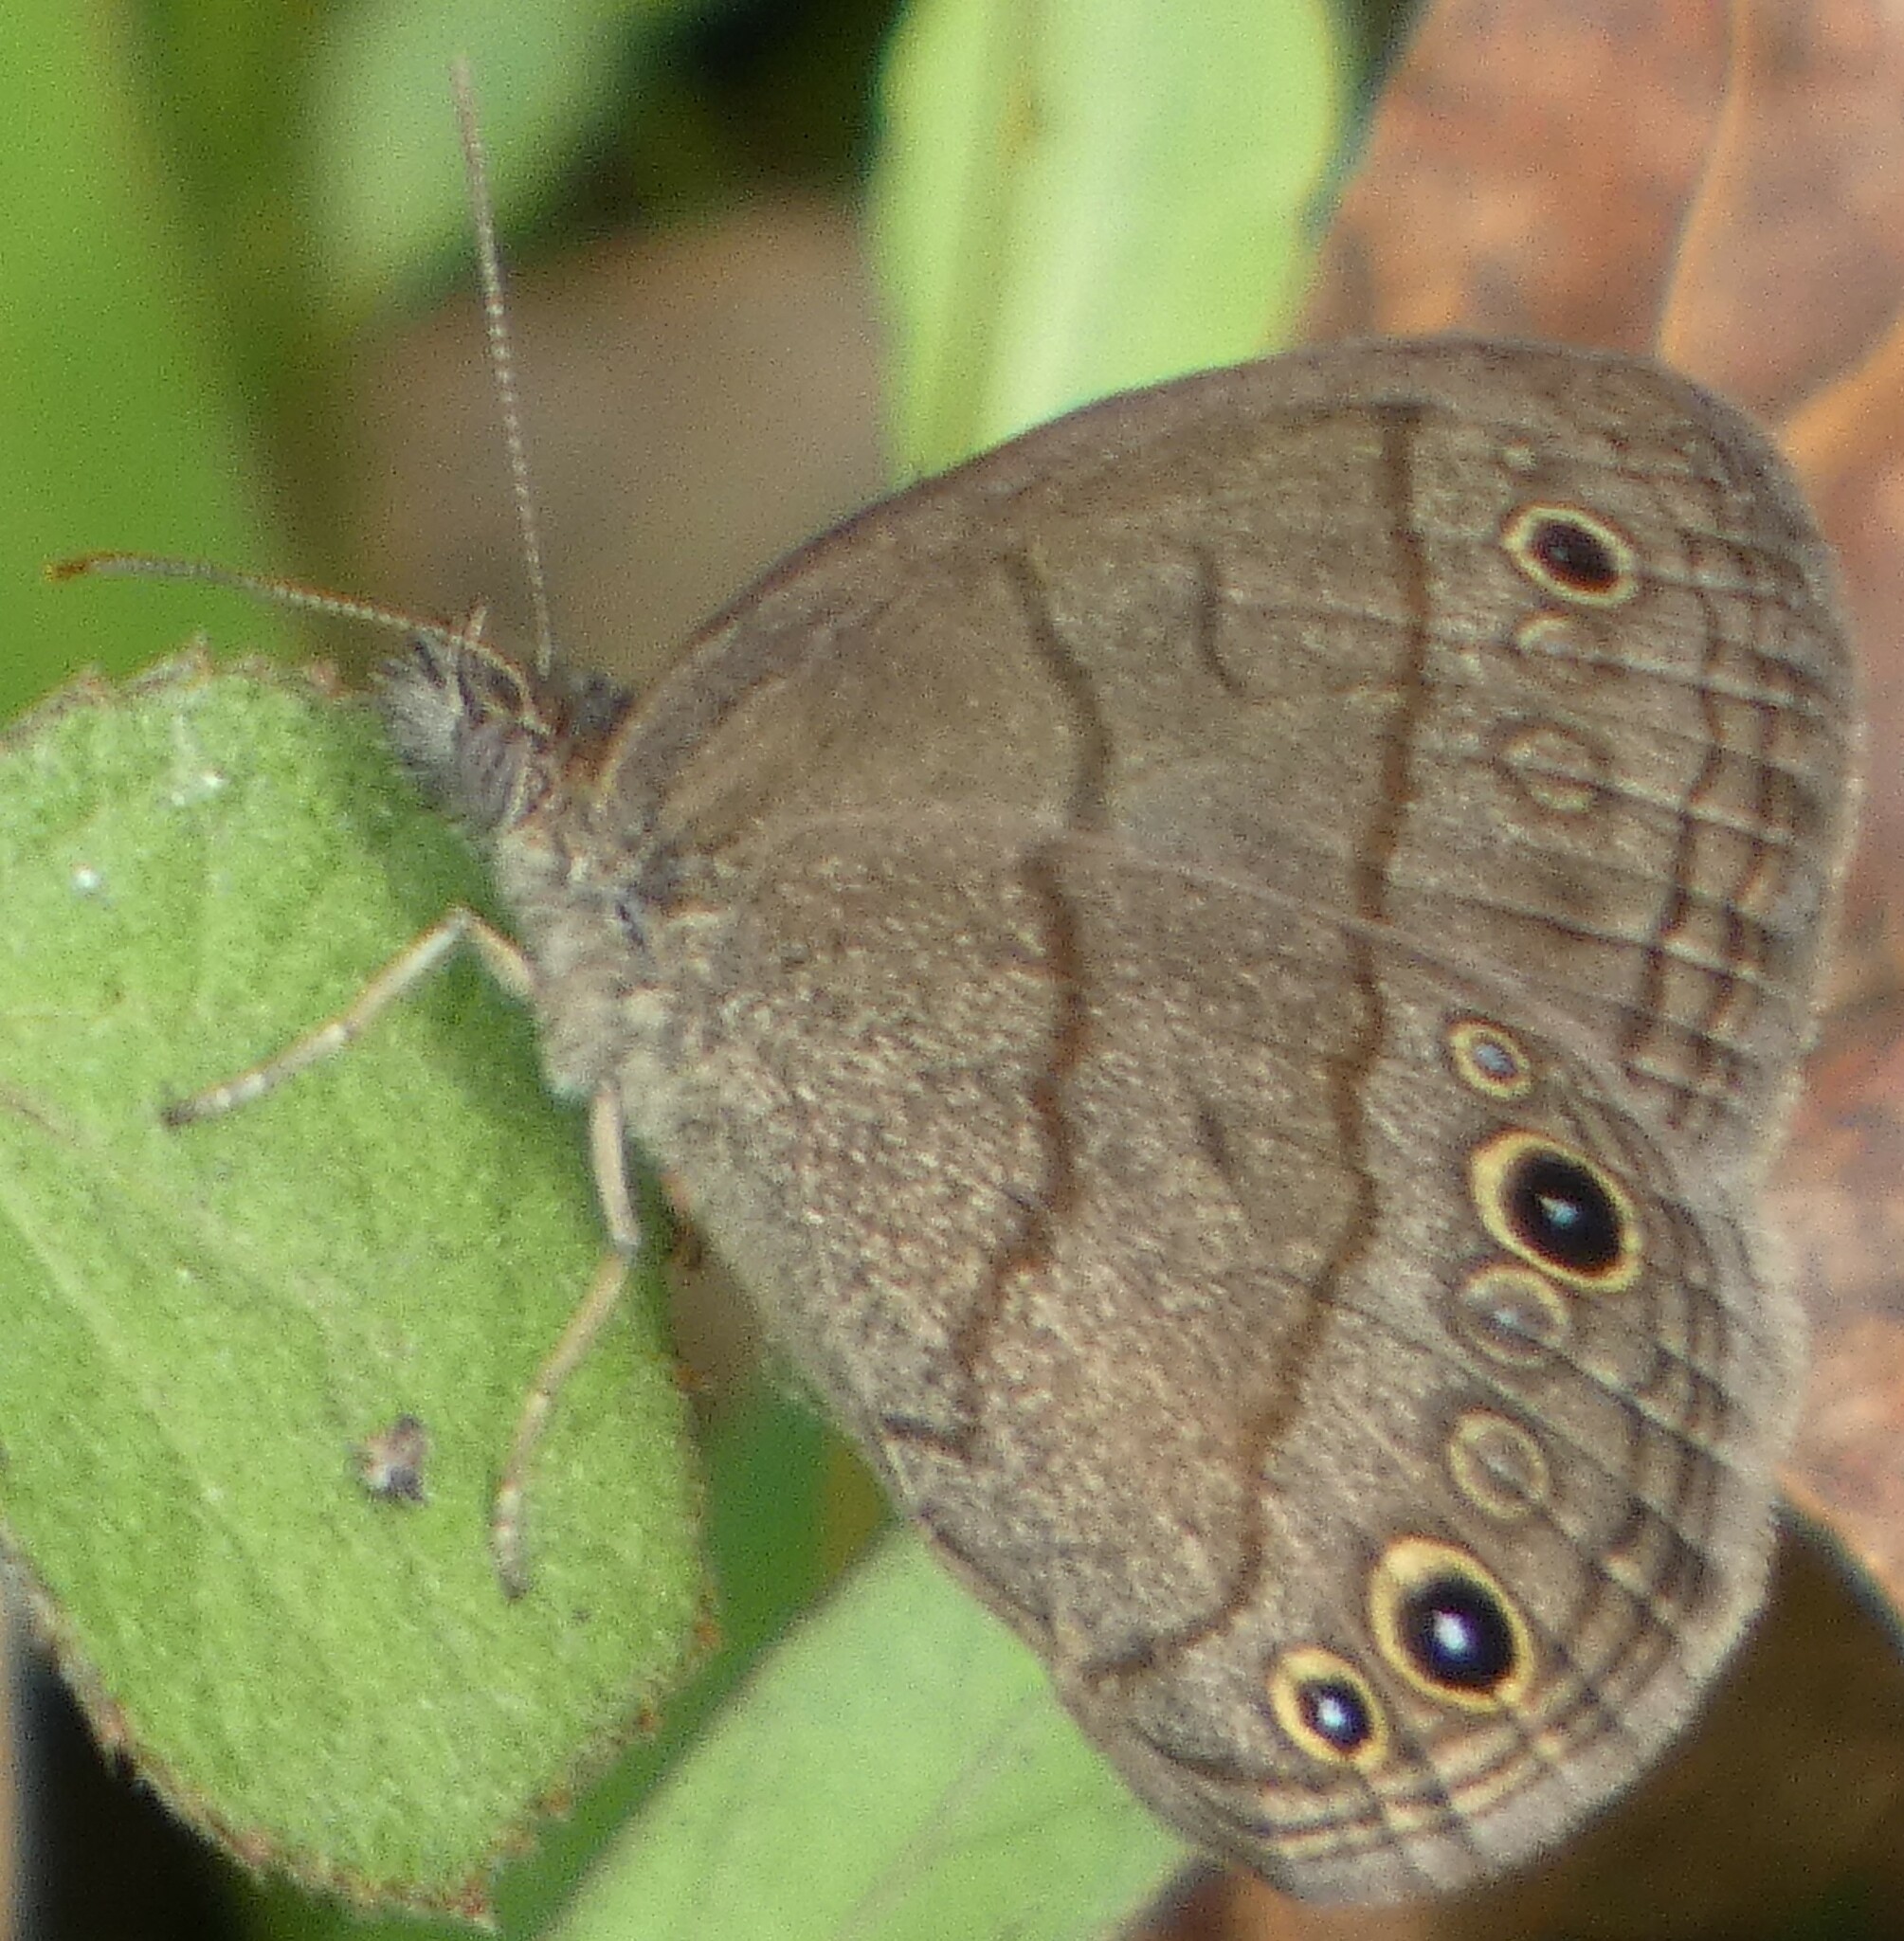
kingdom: Animalia
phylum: Arthropoda
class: Insecta
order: Lepidoptera
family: Nymphalidae
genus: Hermeuptychia
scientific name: Hermeuptychia hermes
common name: Hermes satyr
